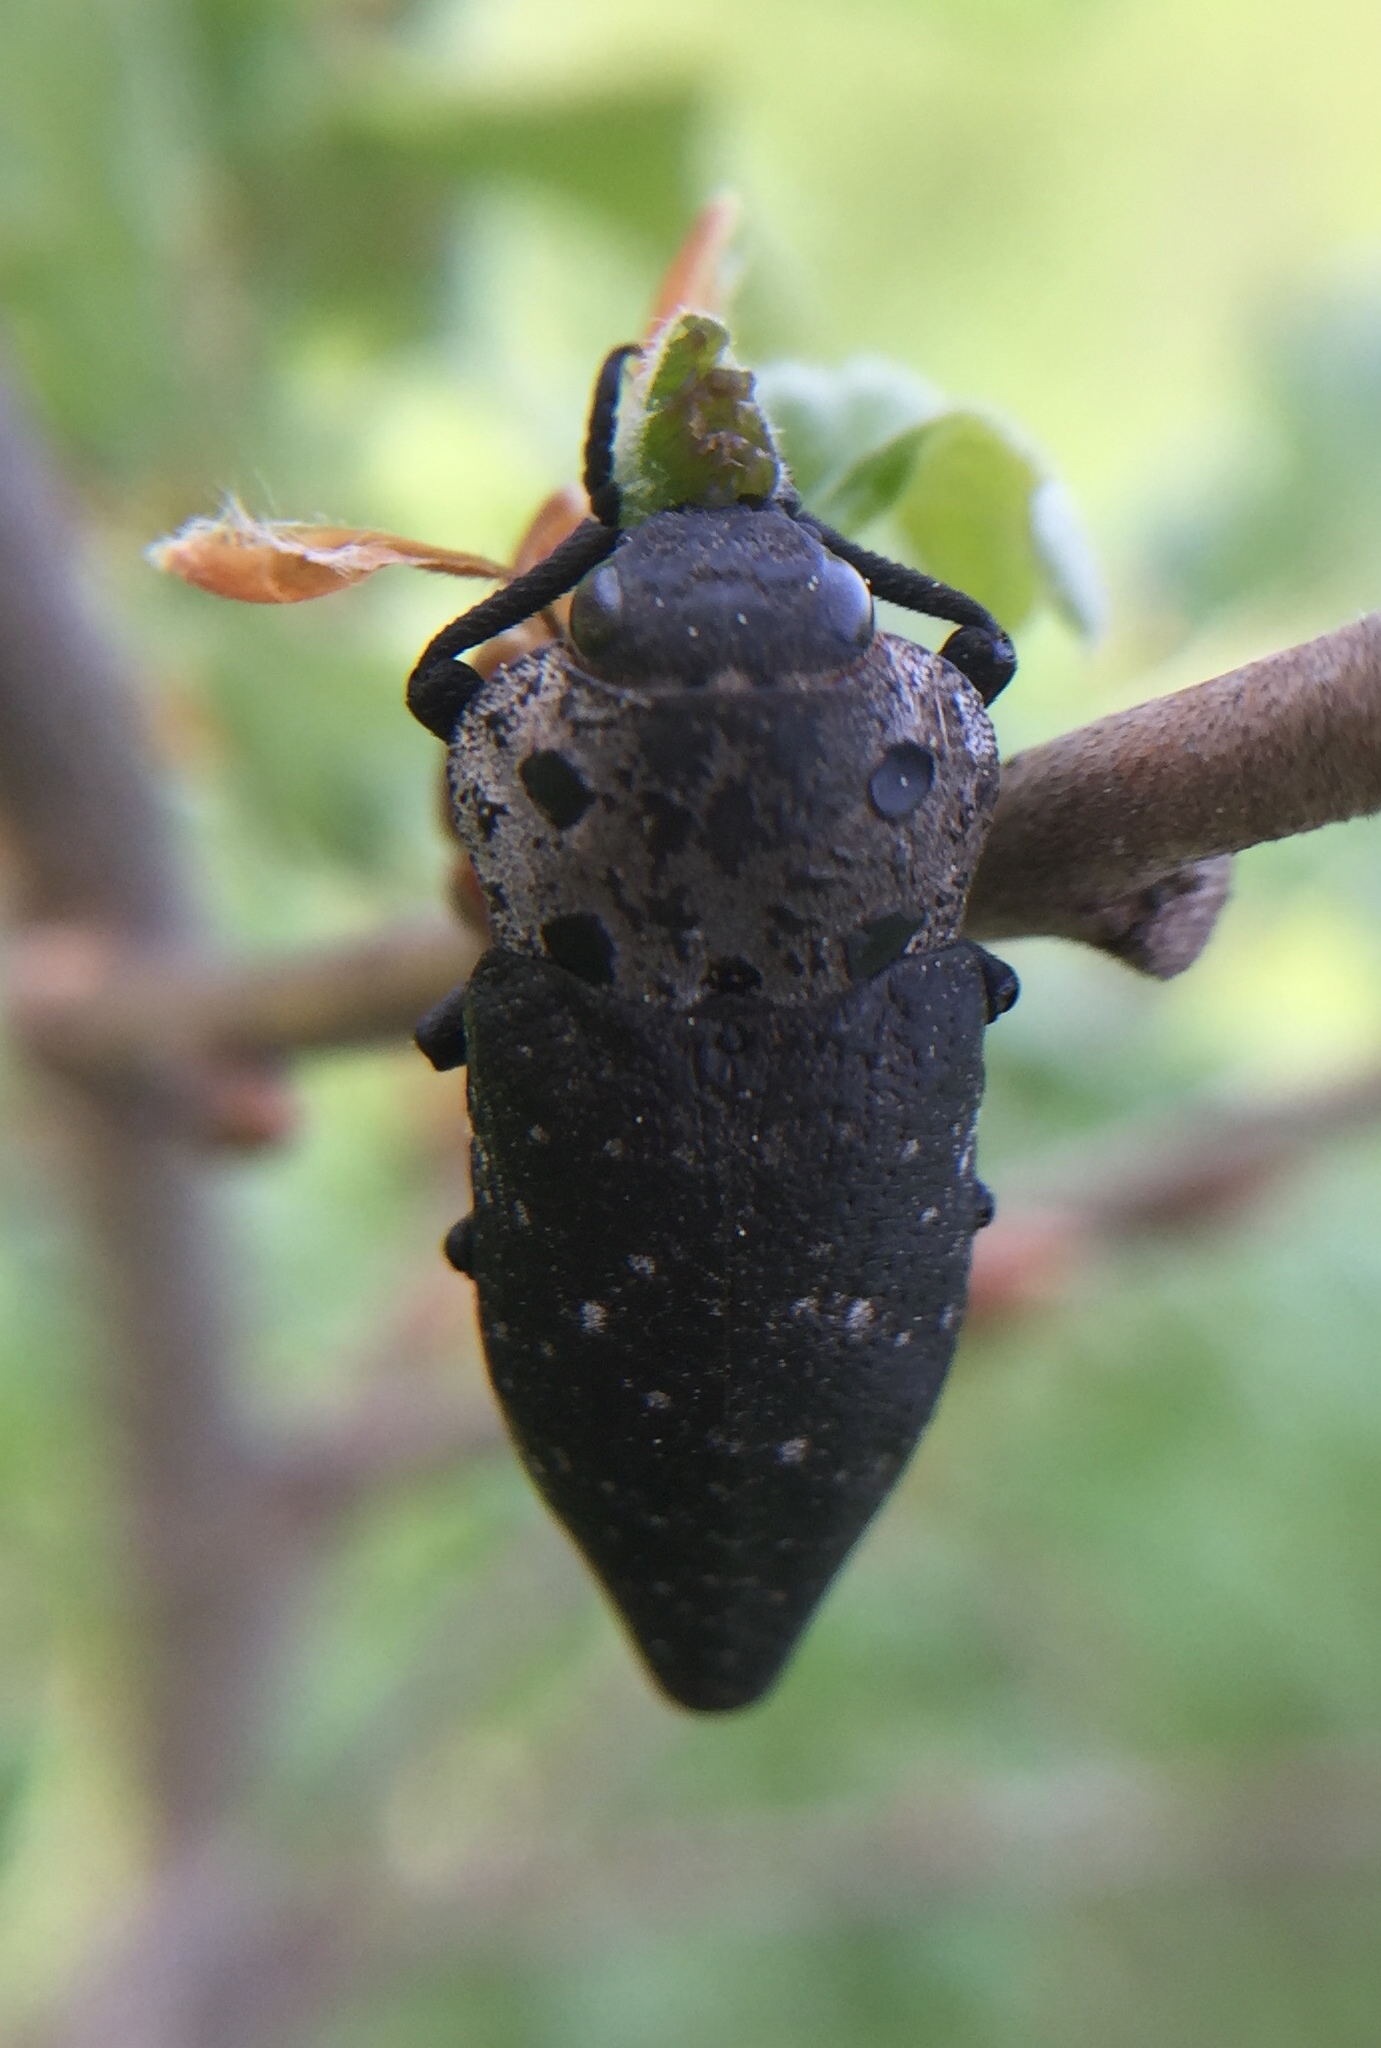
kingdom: Animalia
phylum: Arthropoda
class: Insecta
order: Coleoptera
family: Buprestidae
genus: Capnodis
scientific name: Capnodis tenebrionis
